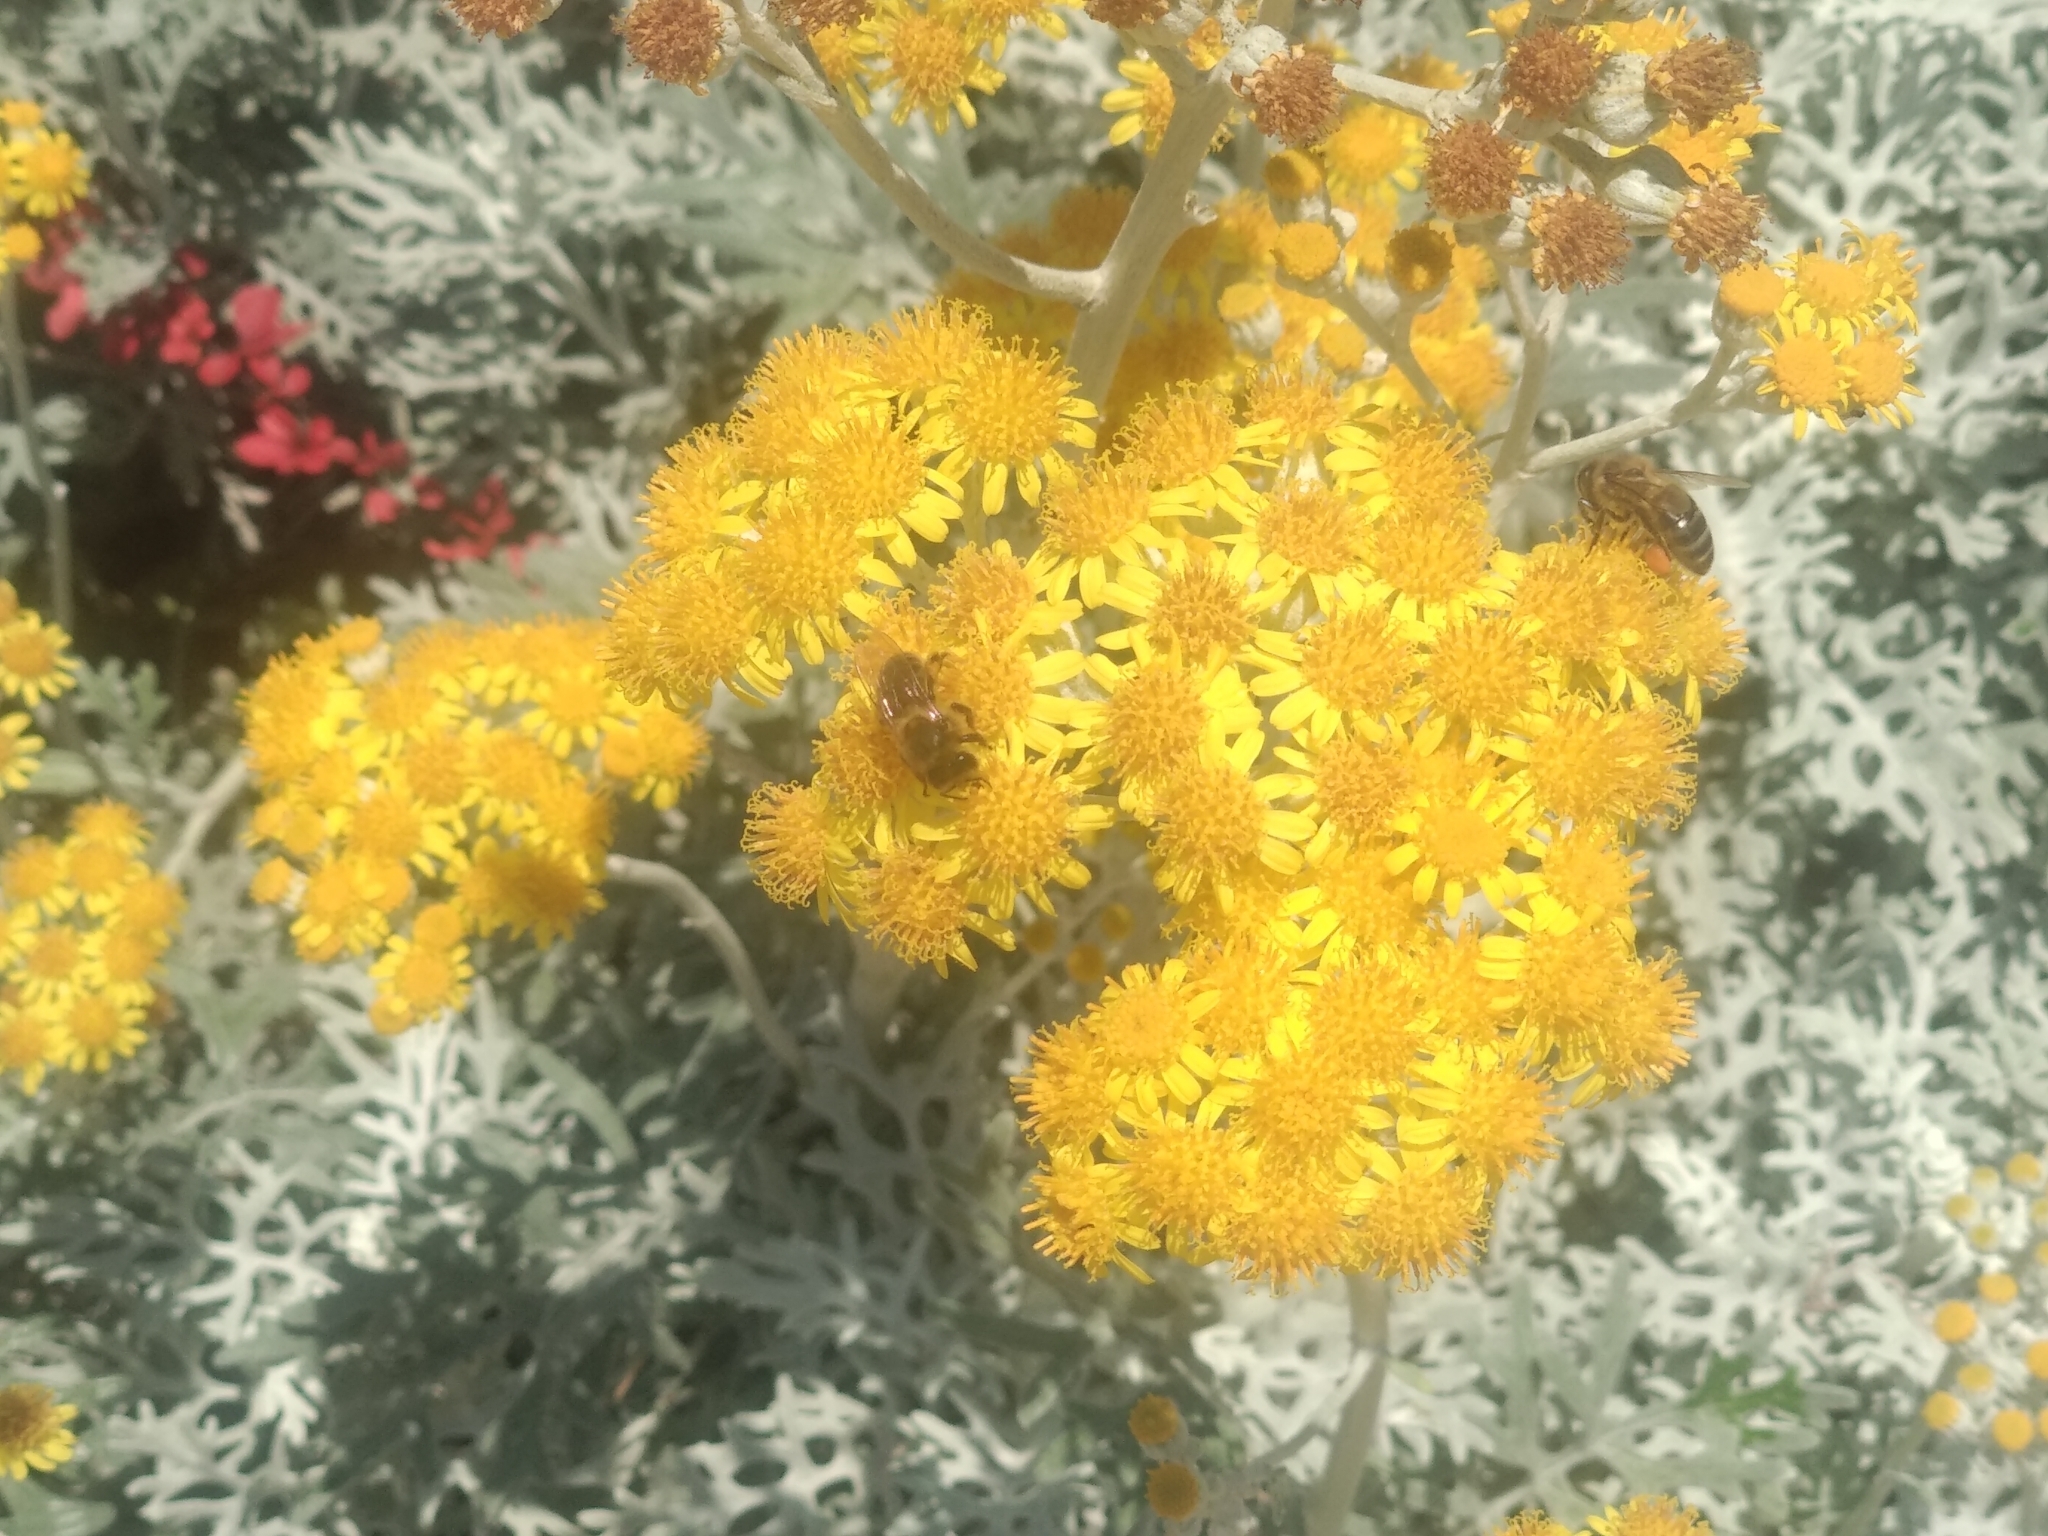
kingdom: Animalia
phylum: Arthropoda
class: Insecta
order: Hymenoptera
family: Apidae
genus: Apis
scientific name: Apis mellifera
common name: Honey bee
